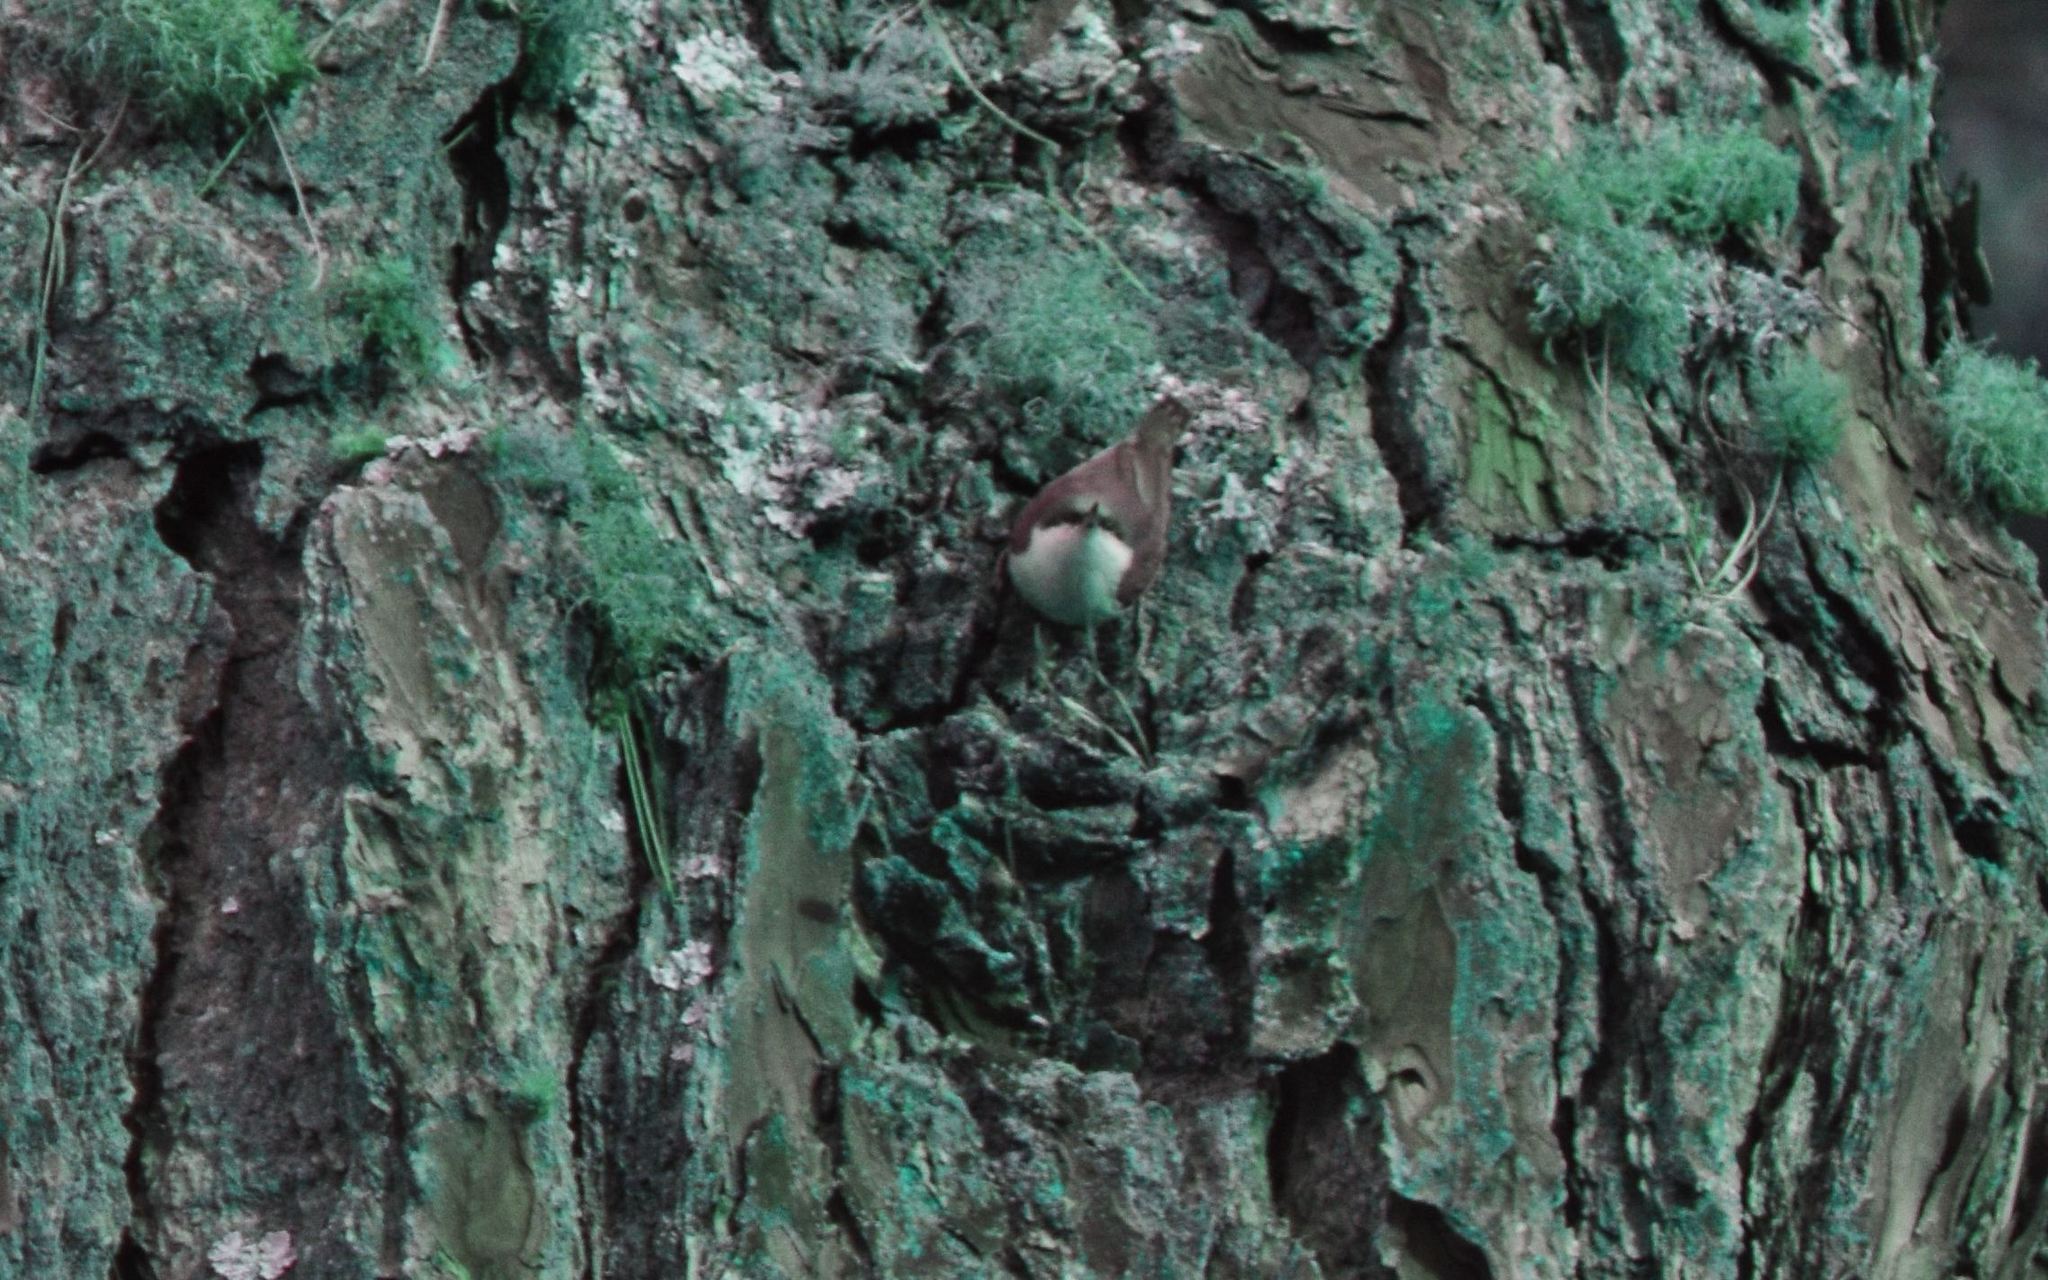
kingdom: Animalia
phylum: Chordata
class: Aves
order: Passeriformes
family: Sittidae
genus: Sitta
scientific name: Sitta pygmaea
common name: Pygmy nuthatch
